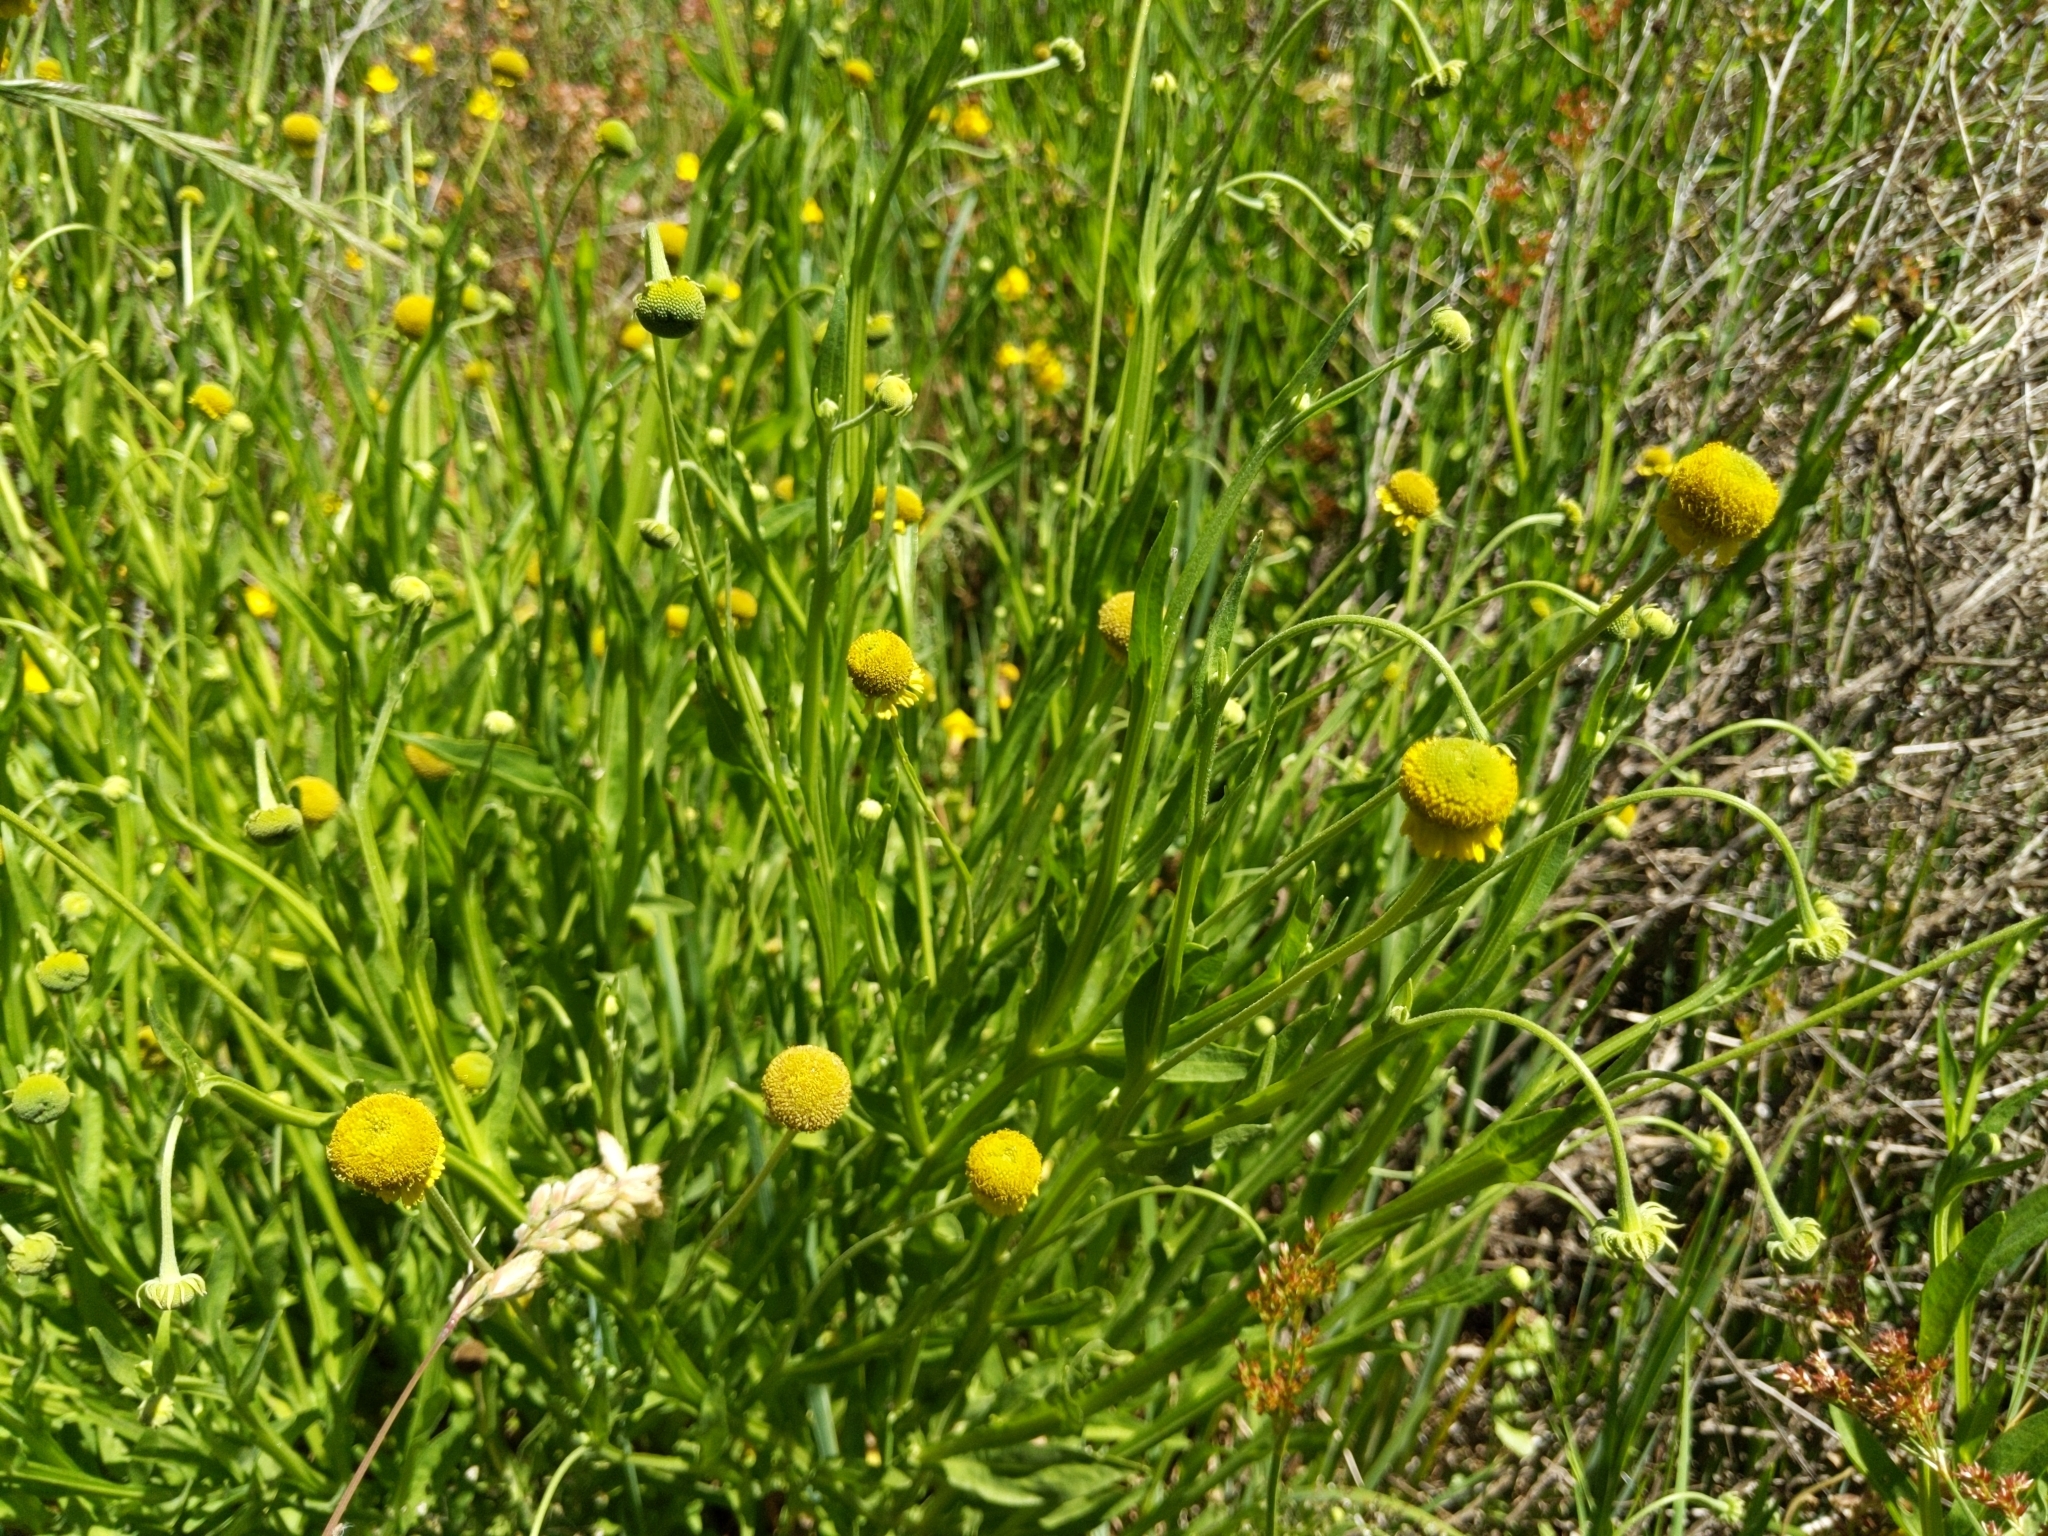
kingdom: Plantae
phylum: Tracheophyta
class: Magnoliopsida
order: Asterales
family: Asteraceae
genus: Helenium
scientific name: Helenium puberulum
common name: Sneezewort
